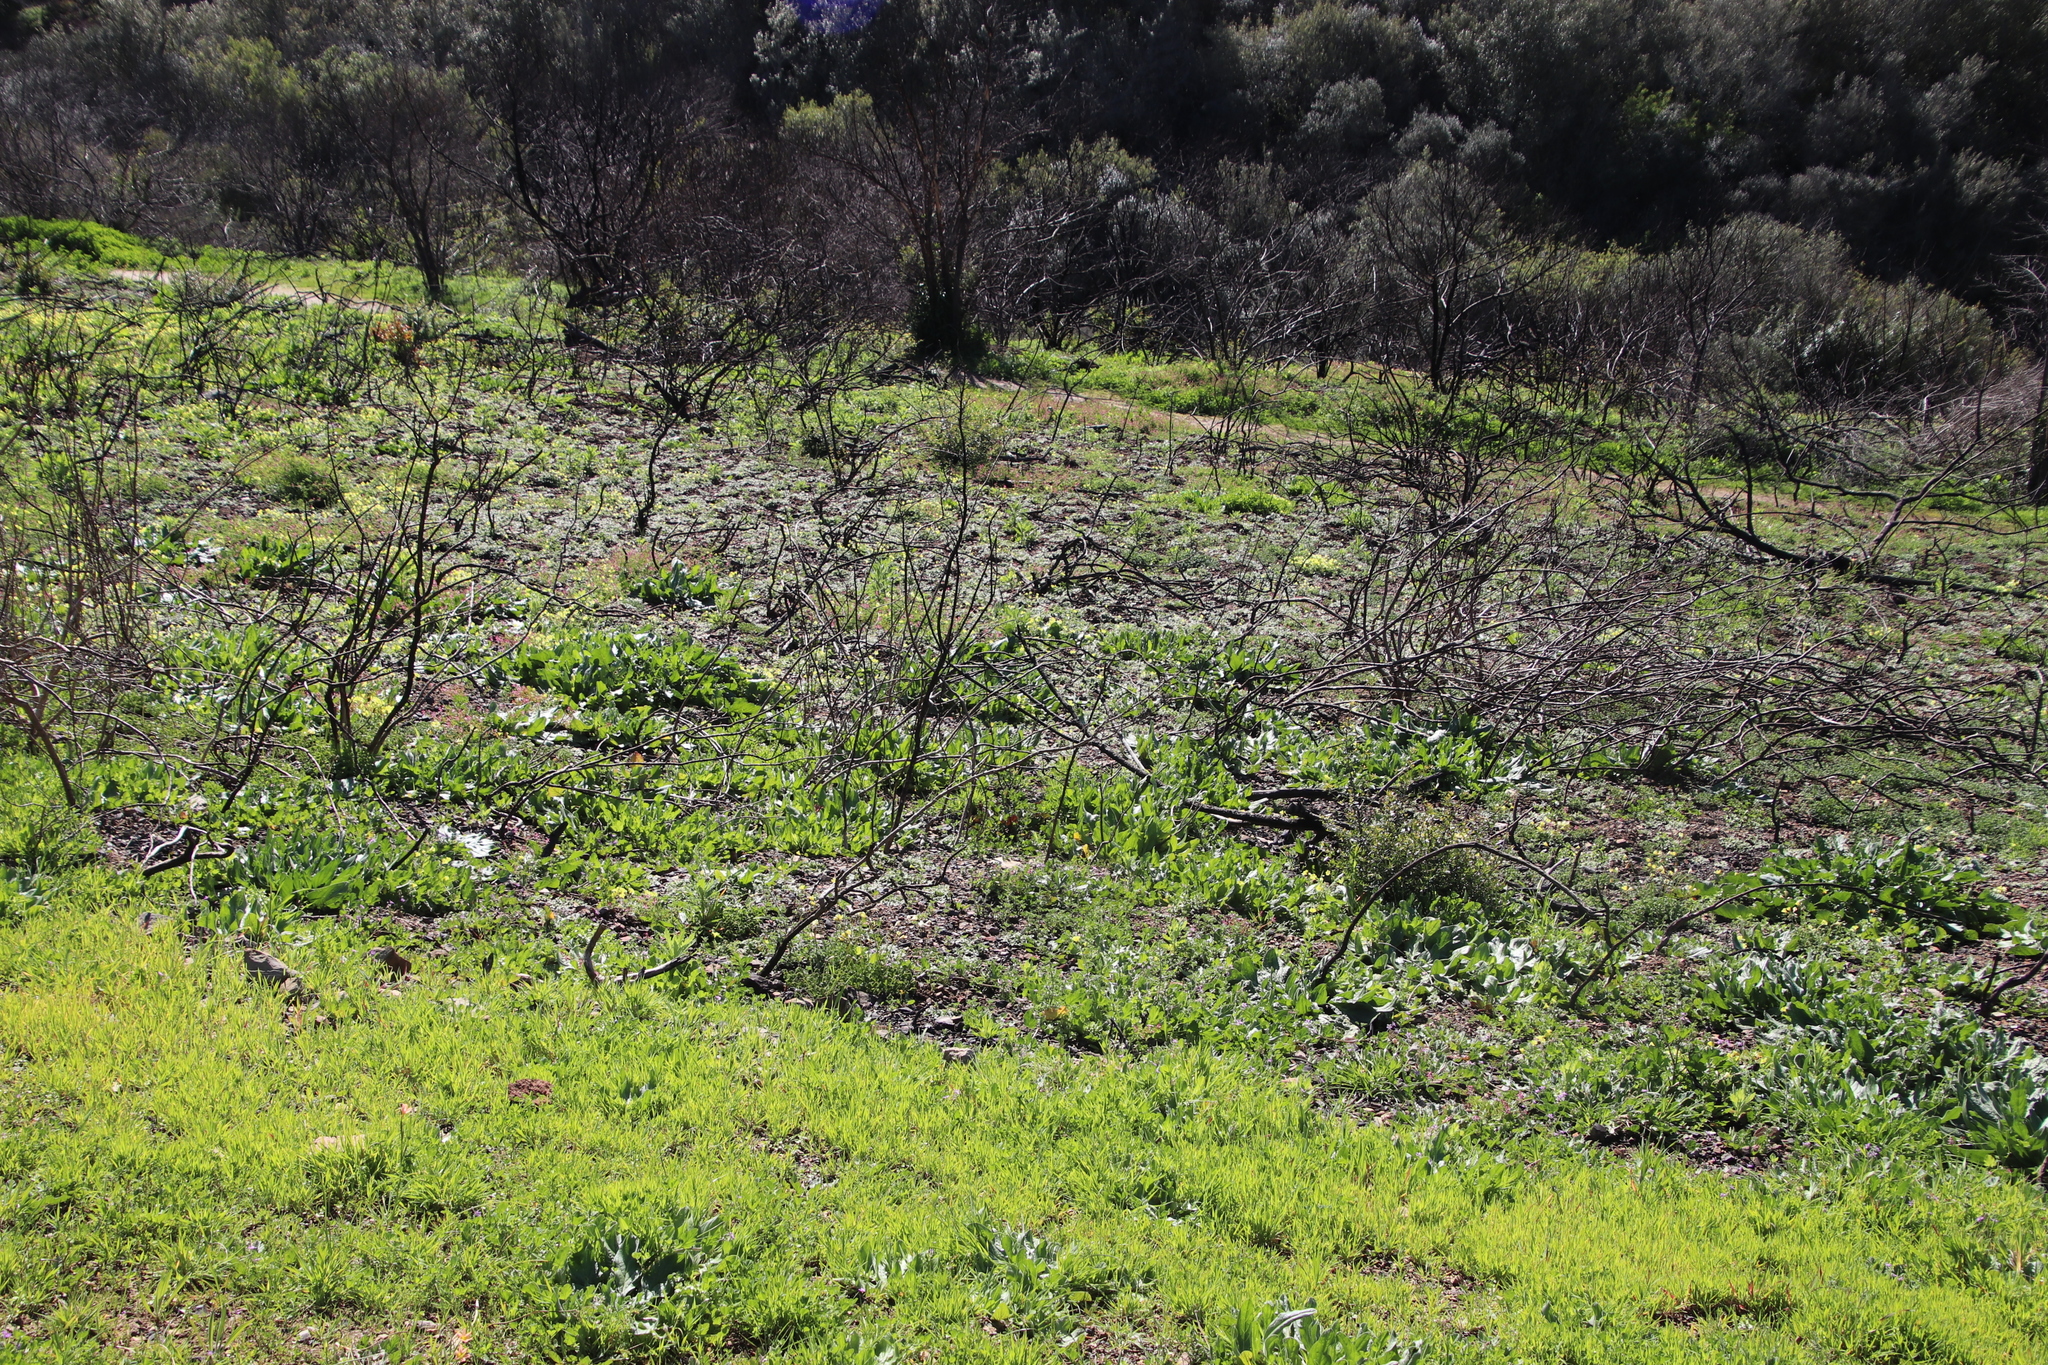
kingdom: Plantae
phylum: Tracheophyta
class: Magnoliopsida
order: Oxalidales
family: Oxalidaceae
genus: Oxalis
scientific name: Oxalis pes-caprae
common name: Bermuda-buttercup
